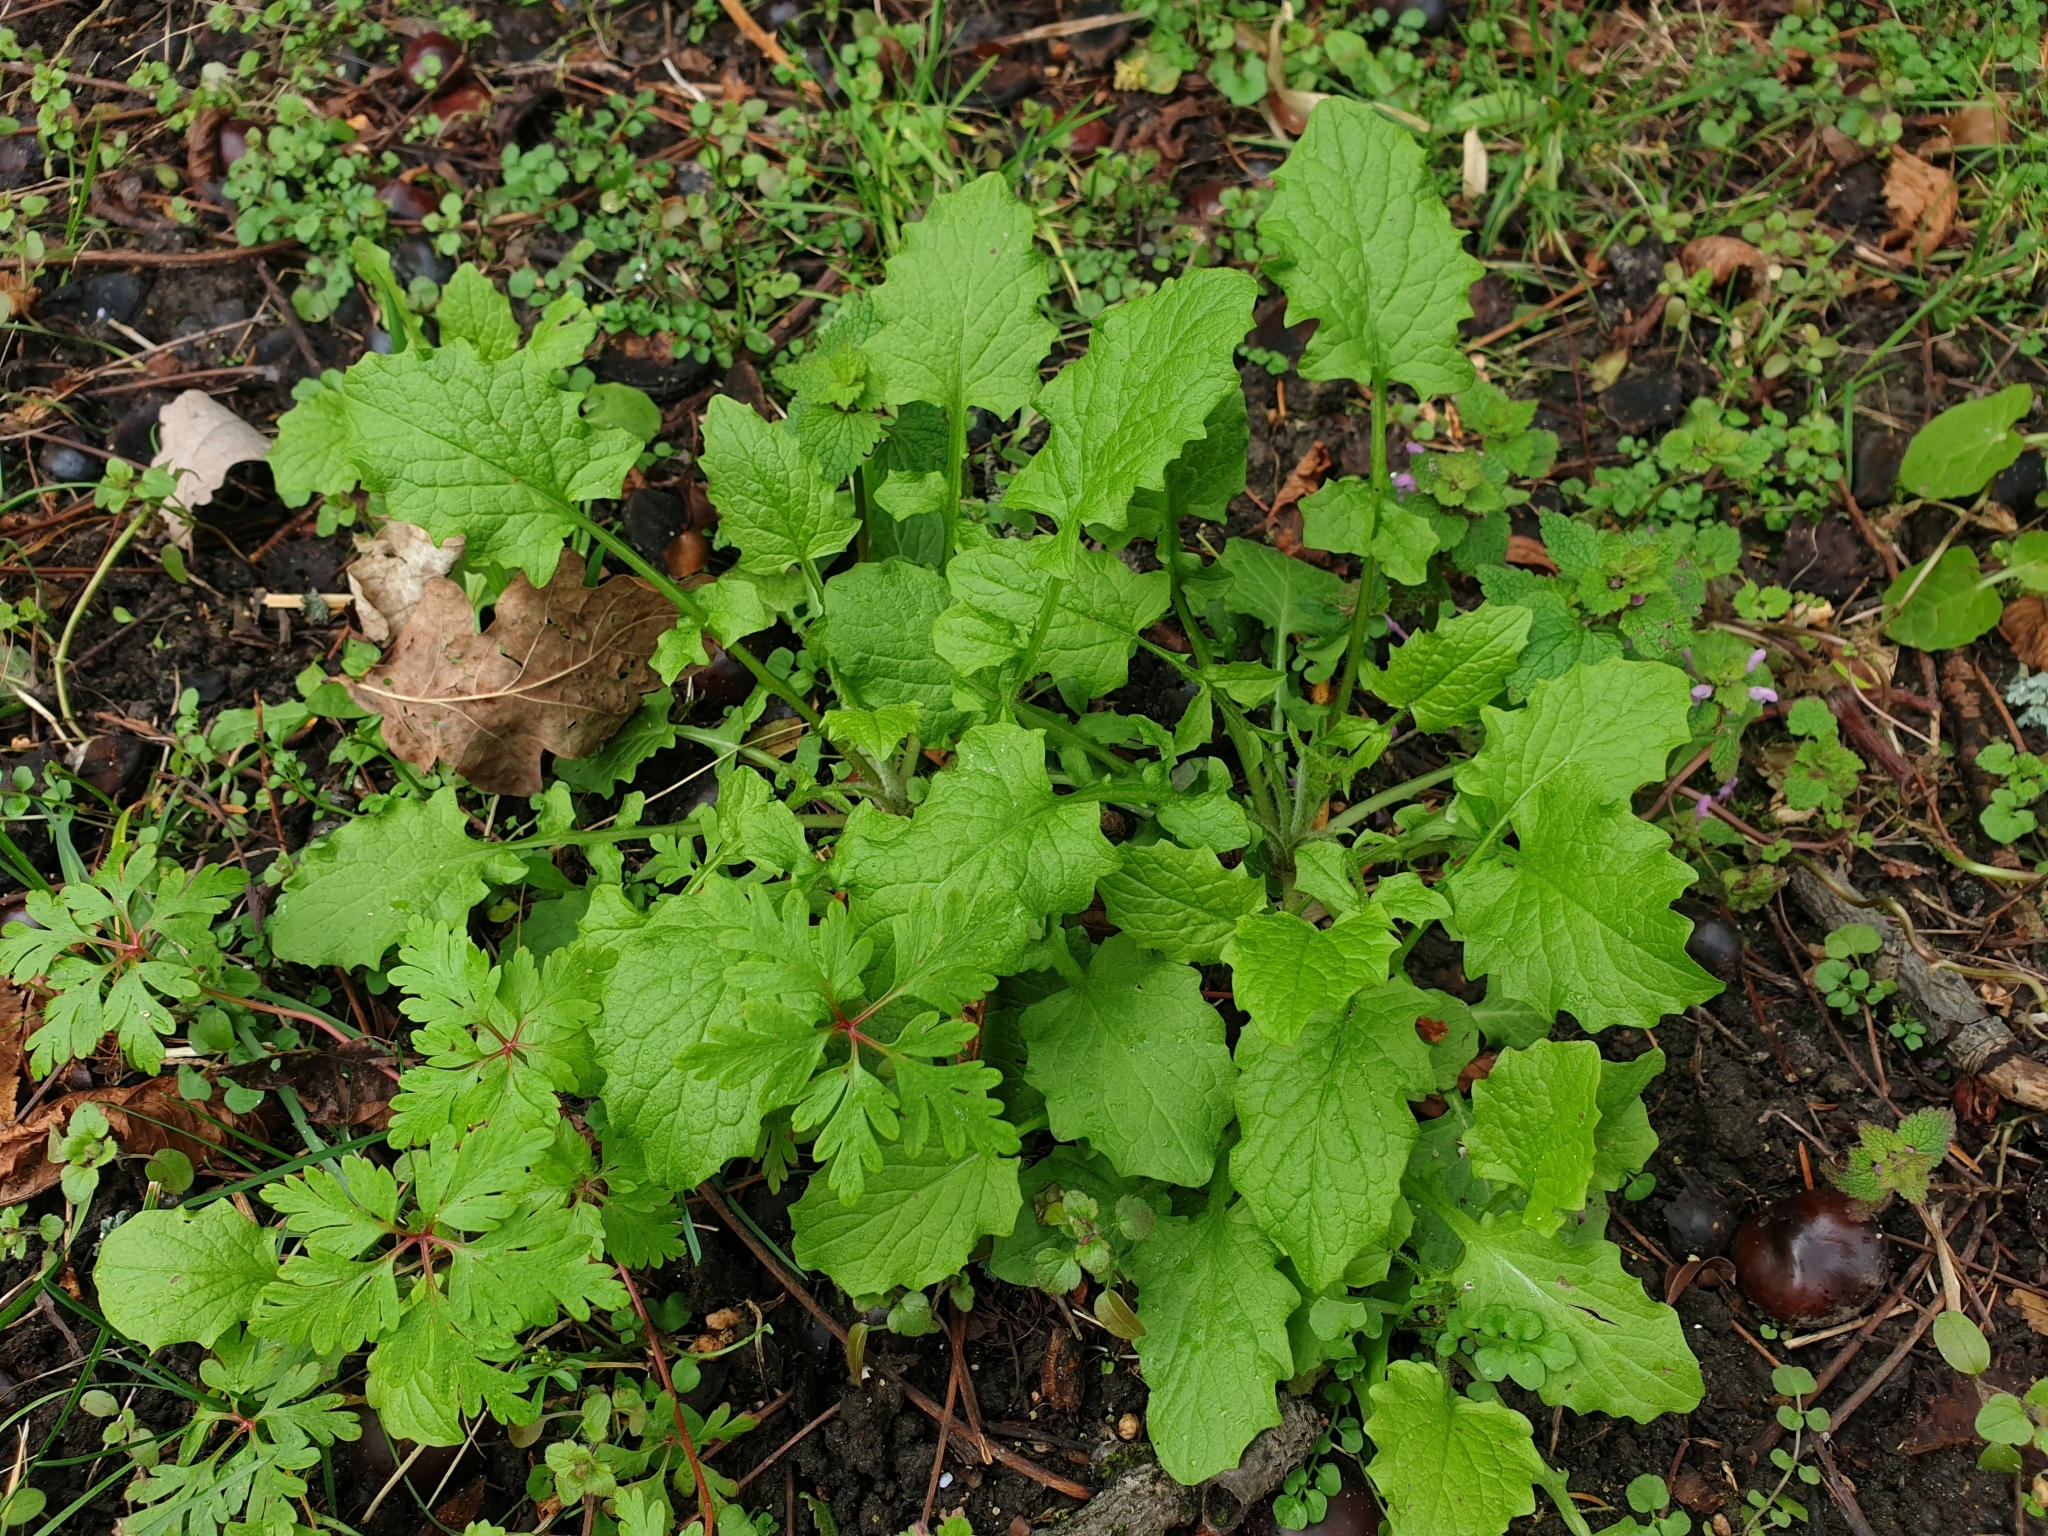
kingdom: Plantae
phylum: Tracheophyta
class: Magnoliopsida
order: Asterales
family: Asteraceae
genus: Lapsana
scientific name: Lapsana communis
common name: Nipplewort
